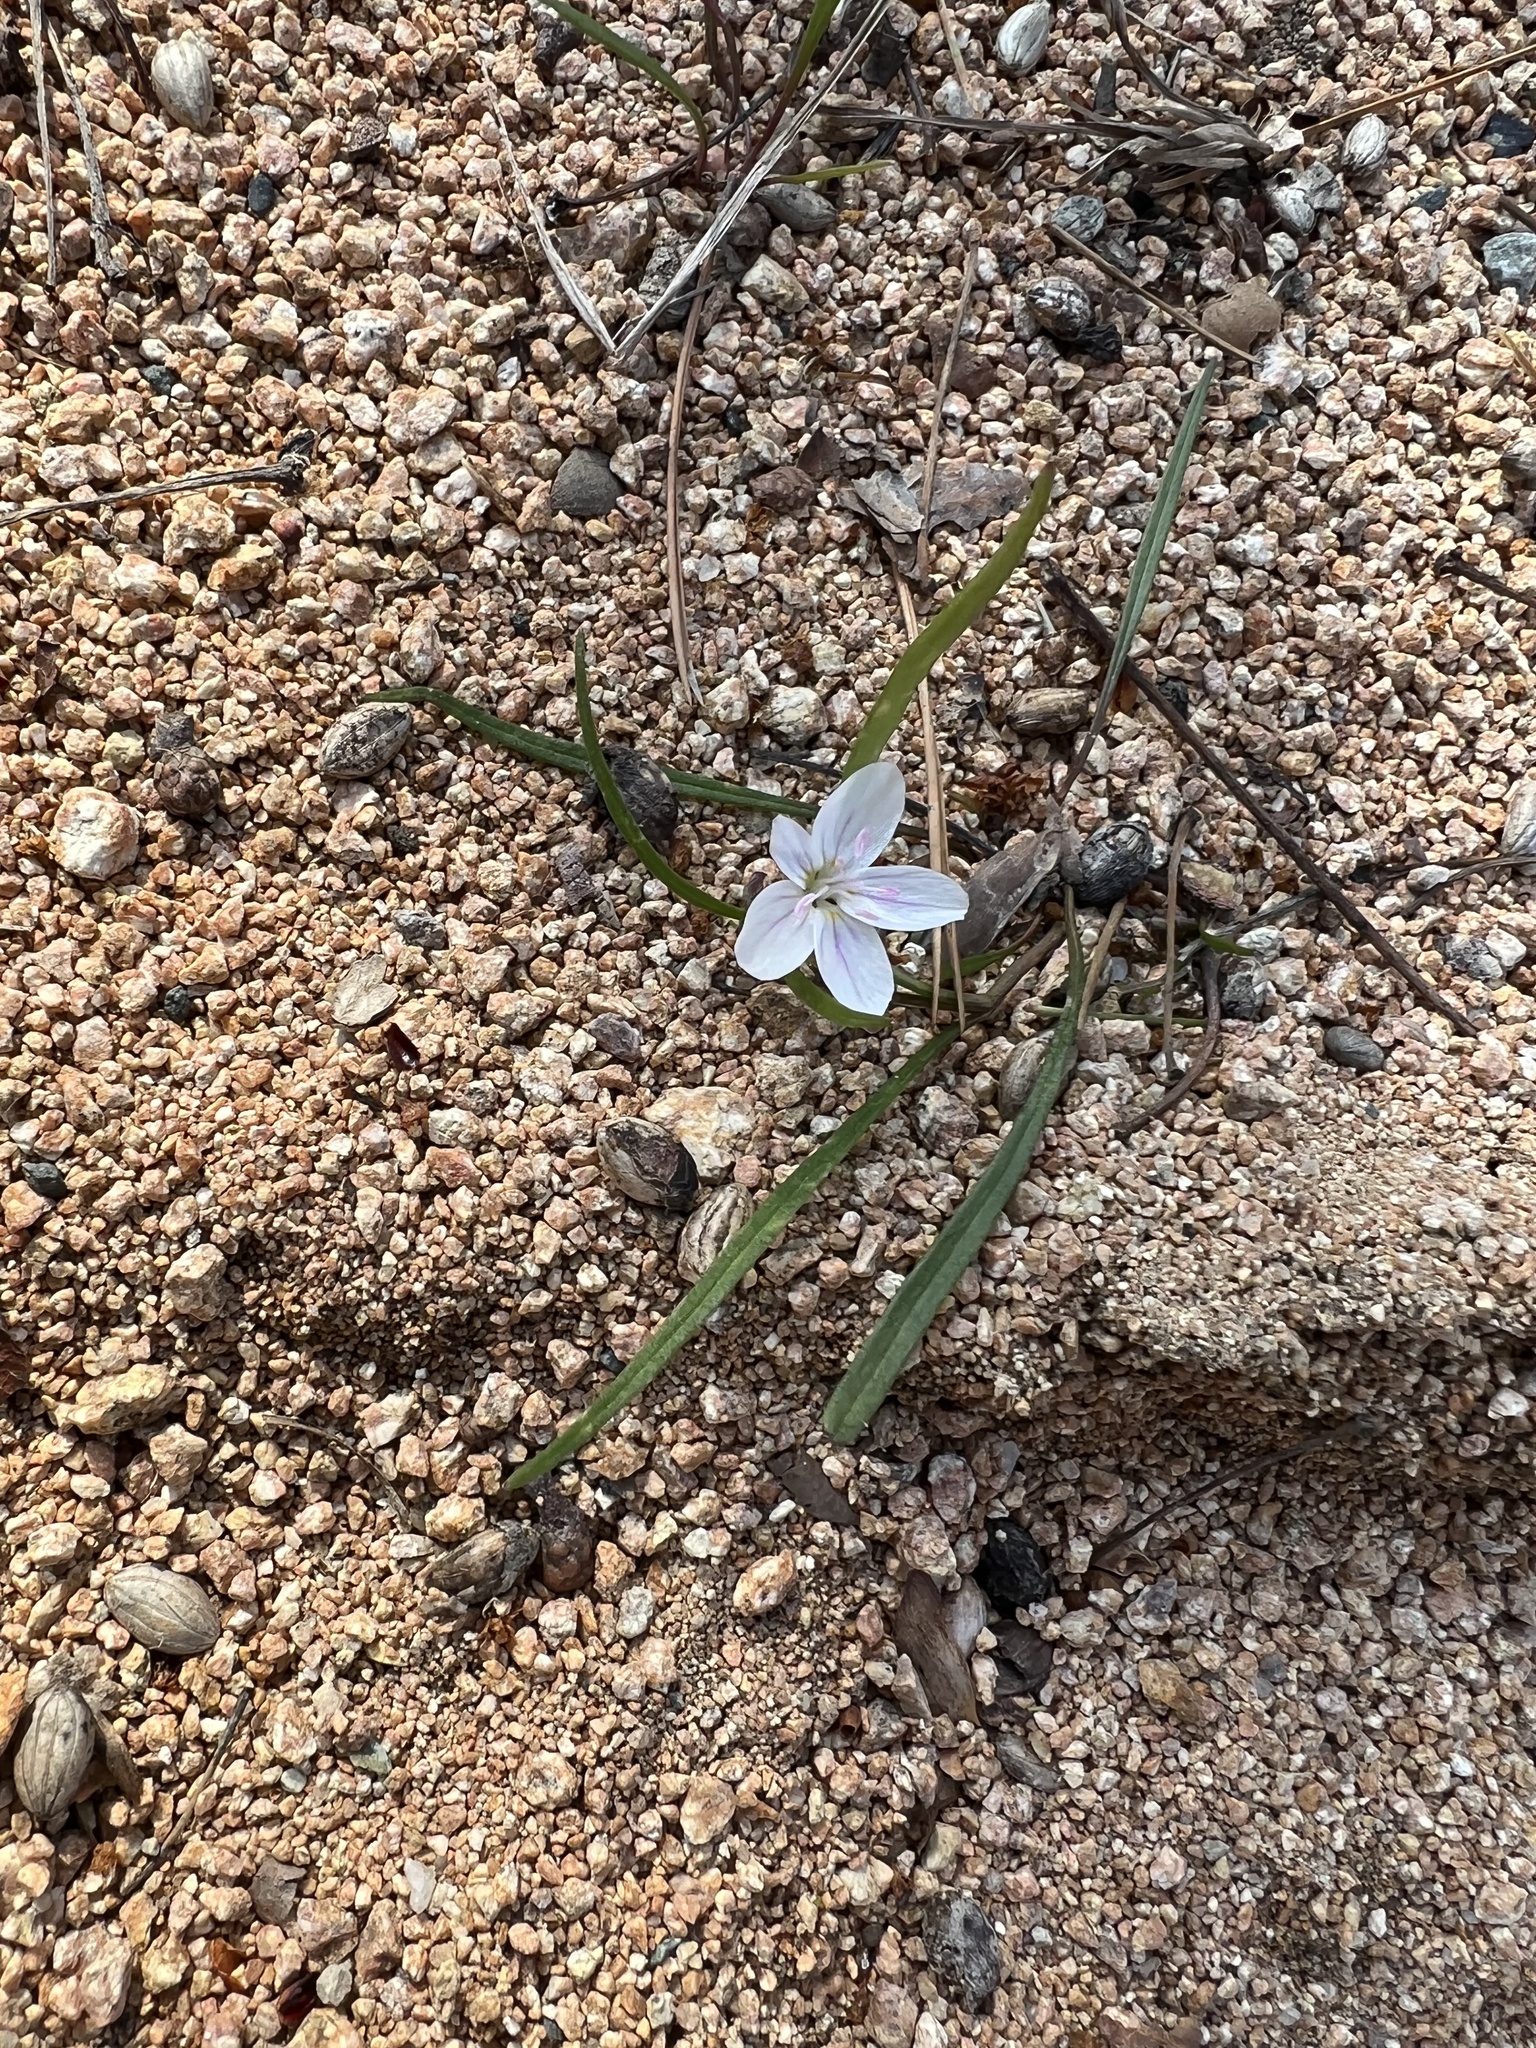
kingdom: Plantae
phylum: Tracheophyta
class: Magnoliopsida
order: Caryophyllales
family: Montiaceae
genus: Claytonia
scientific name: Claytonia virginica
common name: Virginia springbeauty
